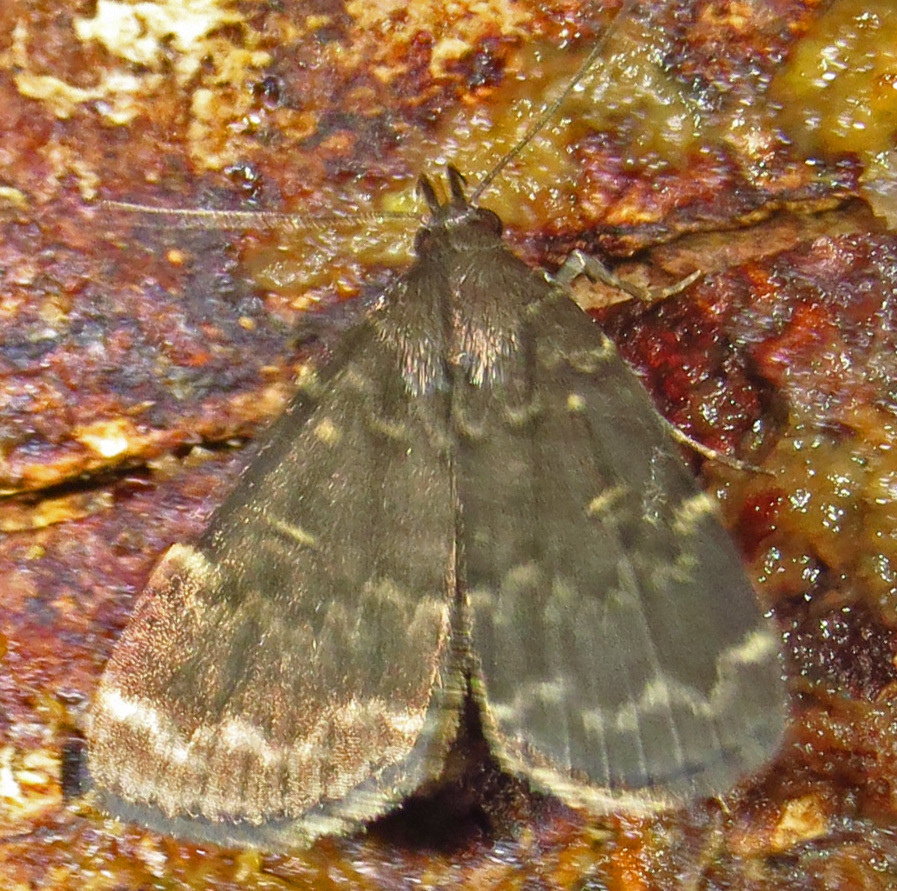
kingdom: Animalia
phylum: Arthropoda
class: Insecta
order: Lepidoptera
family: Erebidae
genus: Idia
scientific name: Idia lubricalis
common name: Twin-striped tabby
